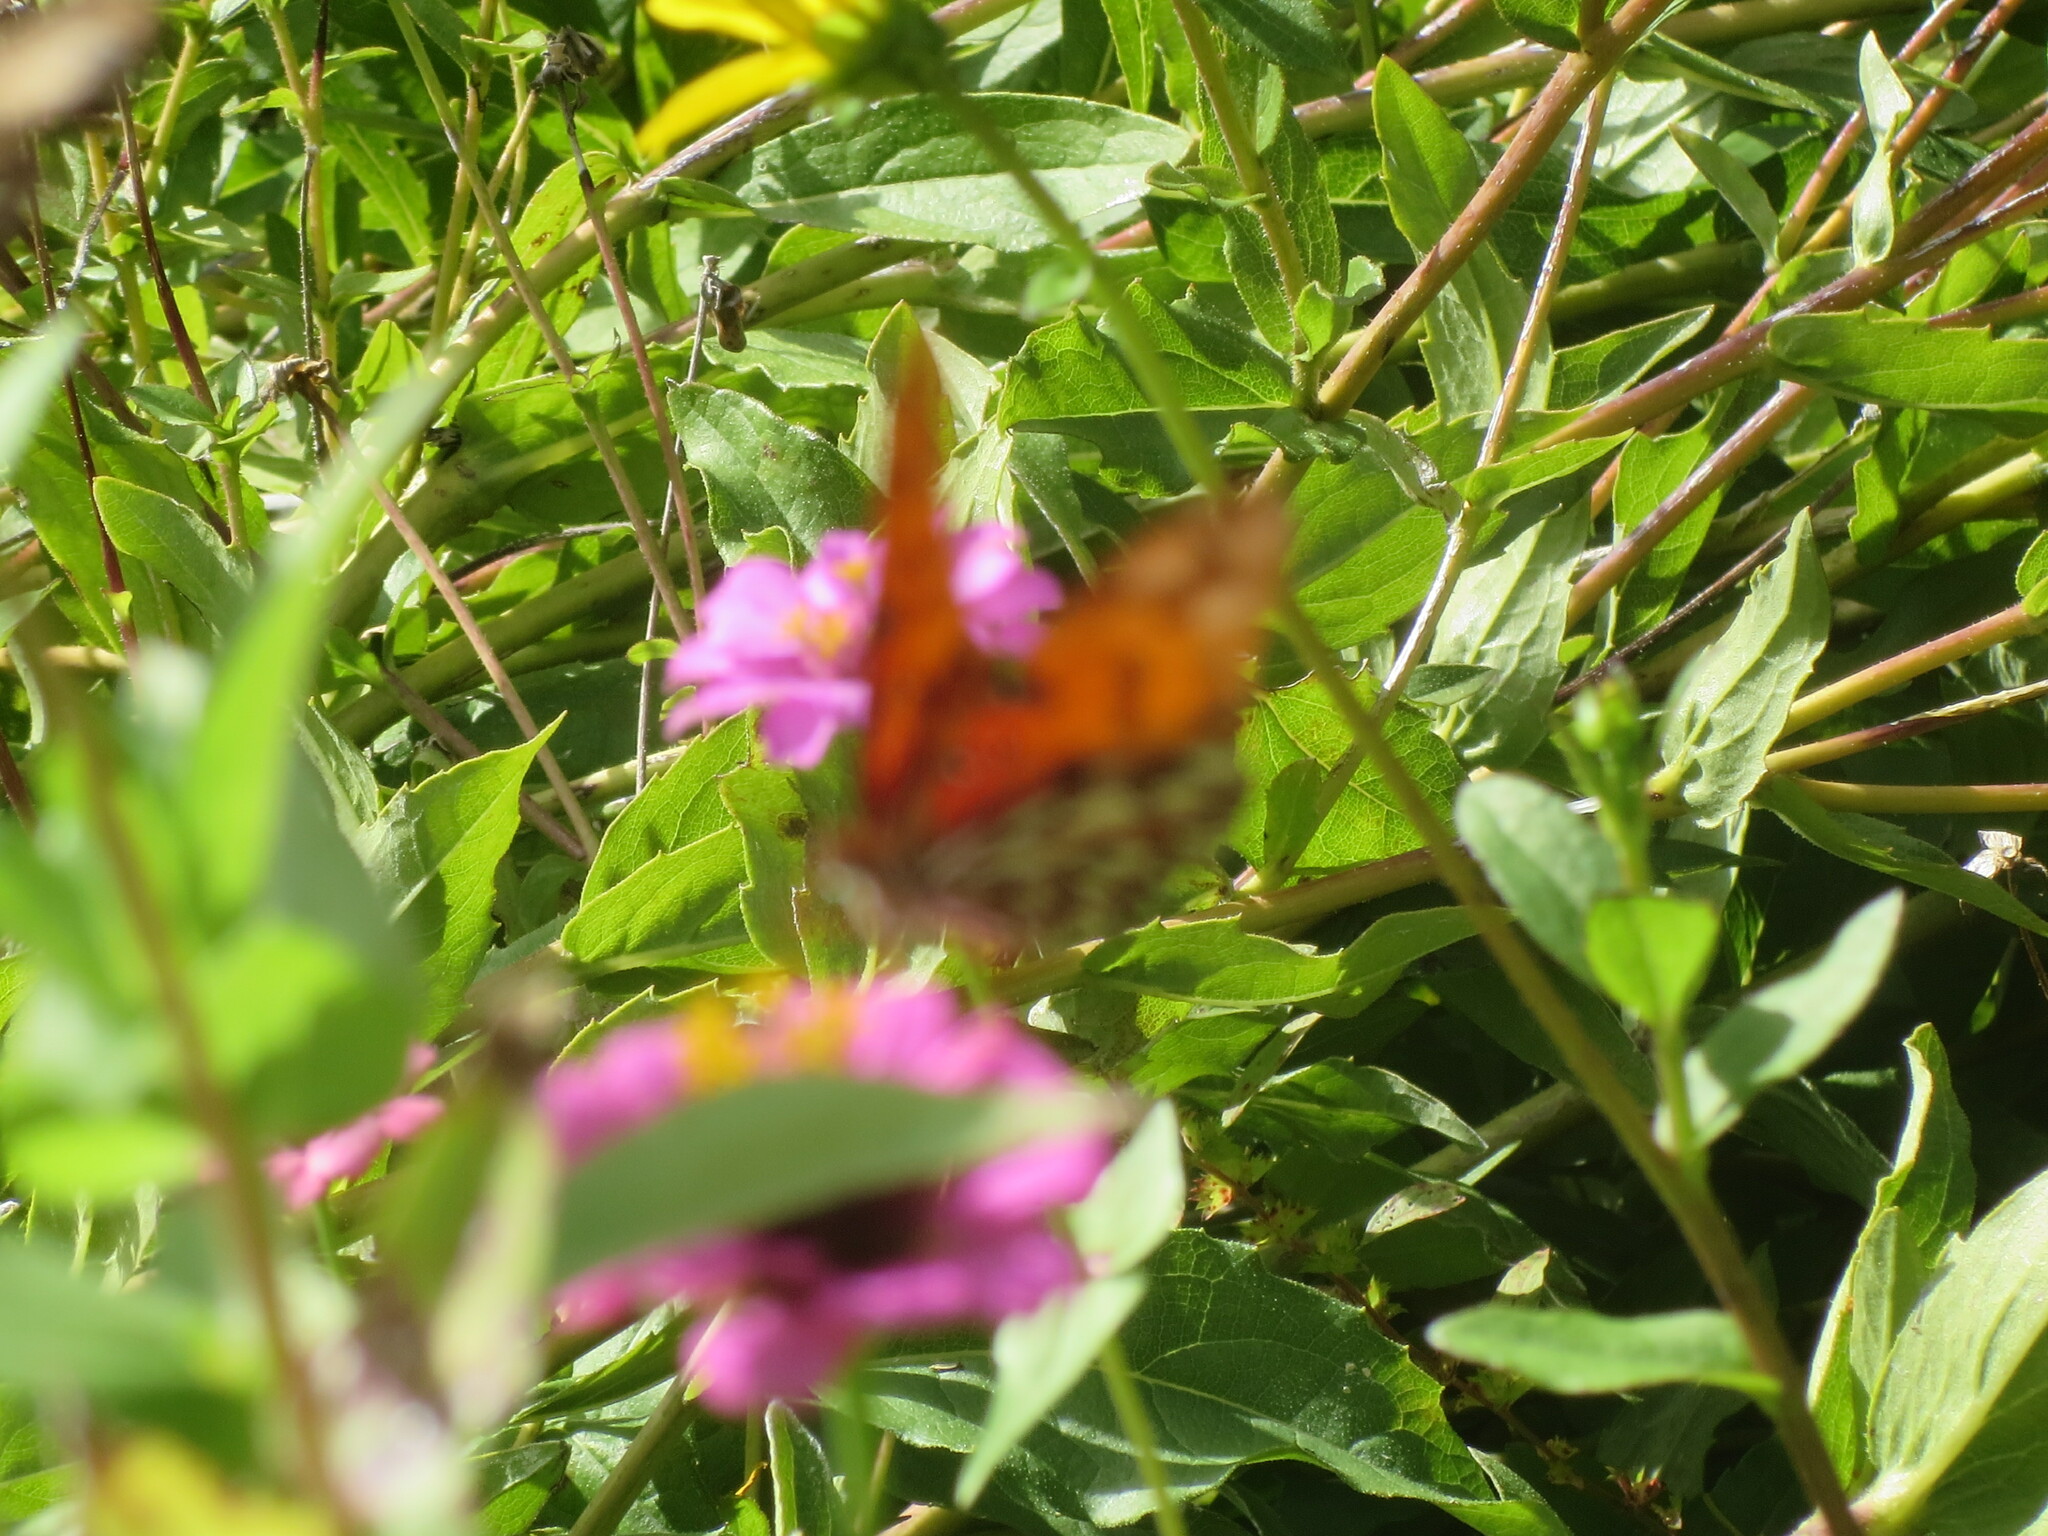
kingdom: Animalia
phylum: Arthropoda
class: Insecta
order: Lepidoptera
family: Nymphalidae
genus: Dione
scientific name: Dione vanillae
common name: Gulf fritillary
